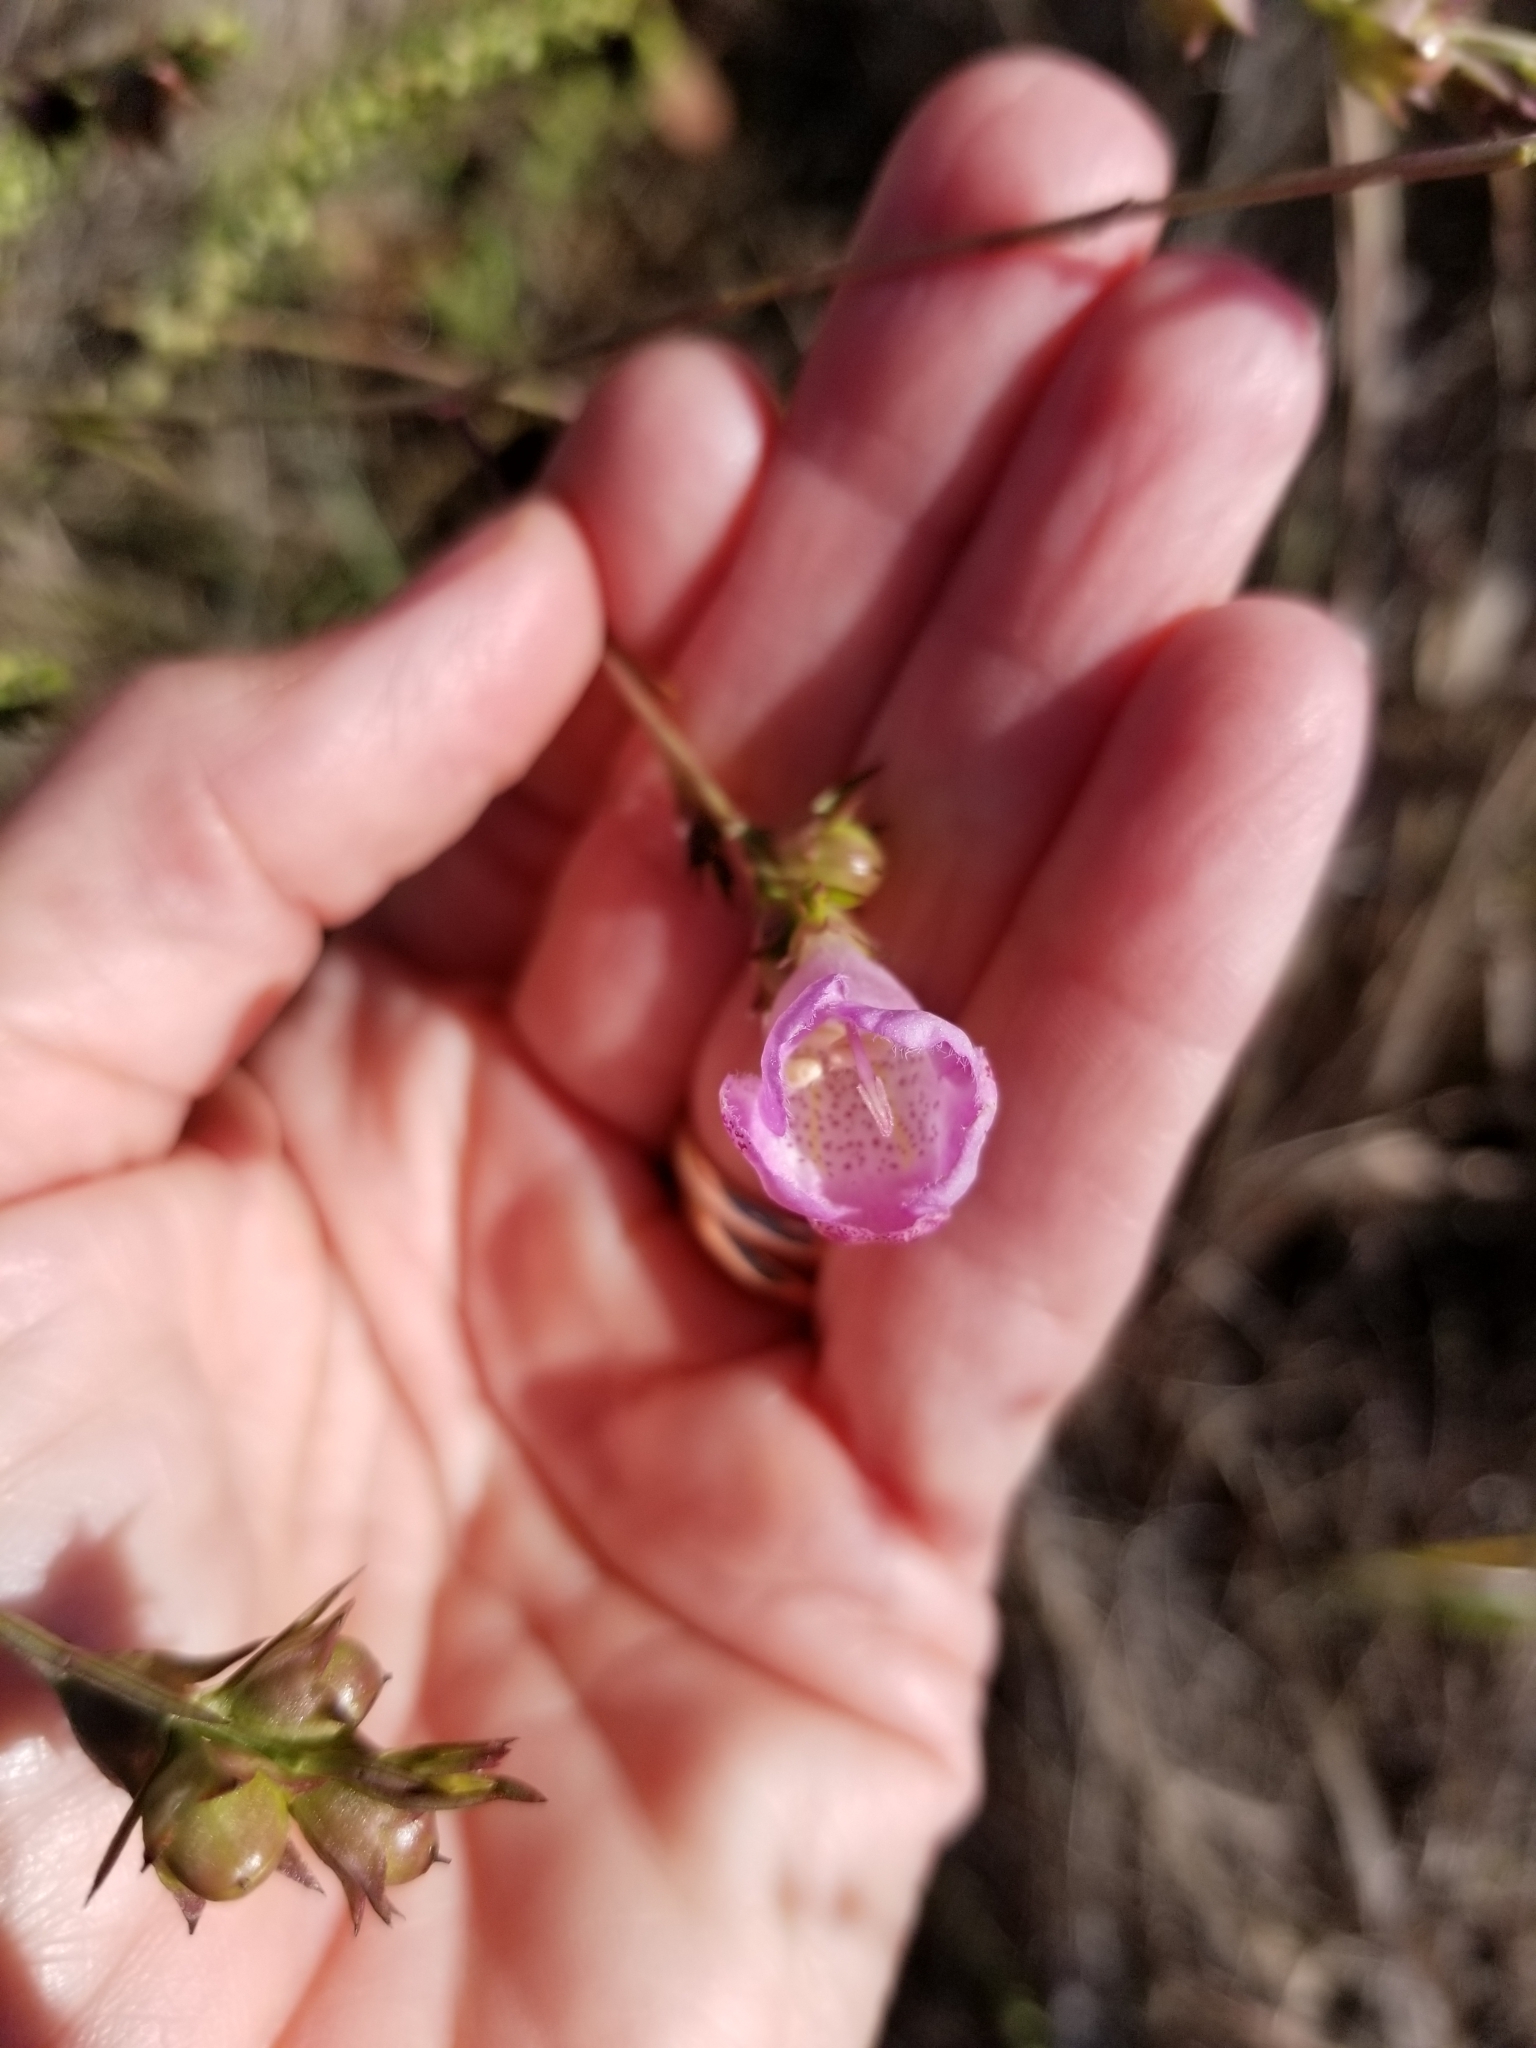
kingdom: Plantae
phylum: Tracheophyta
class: Magnoliopsida
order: Lamiales
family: Orobanchaceae
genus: Agalinis
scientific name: Agalinis heterophylla
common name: Prairie agalinis
